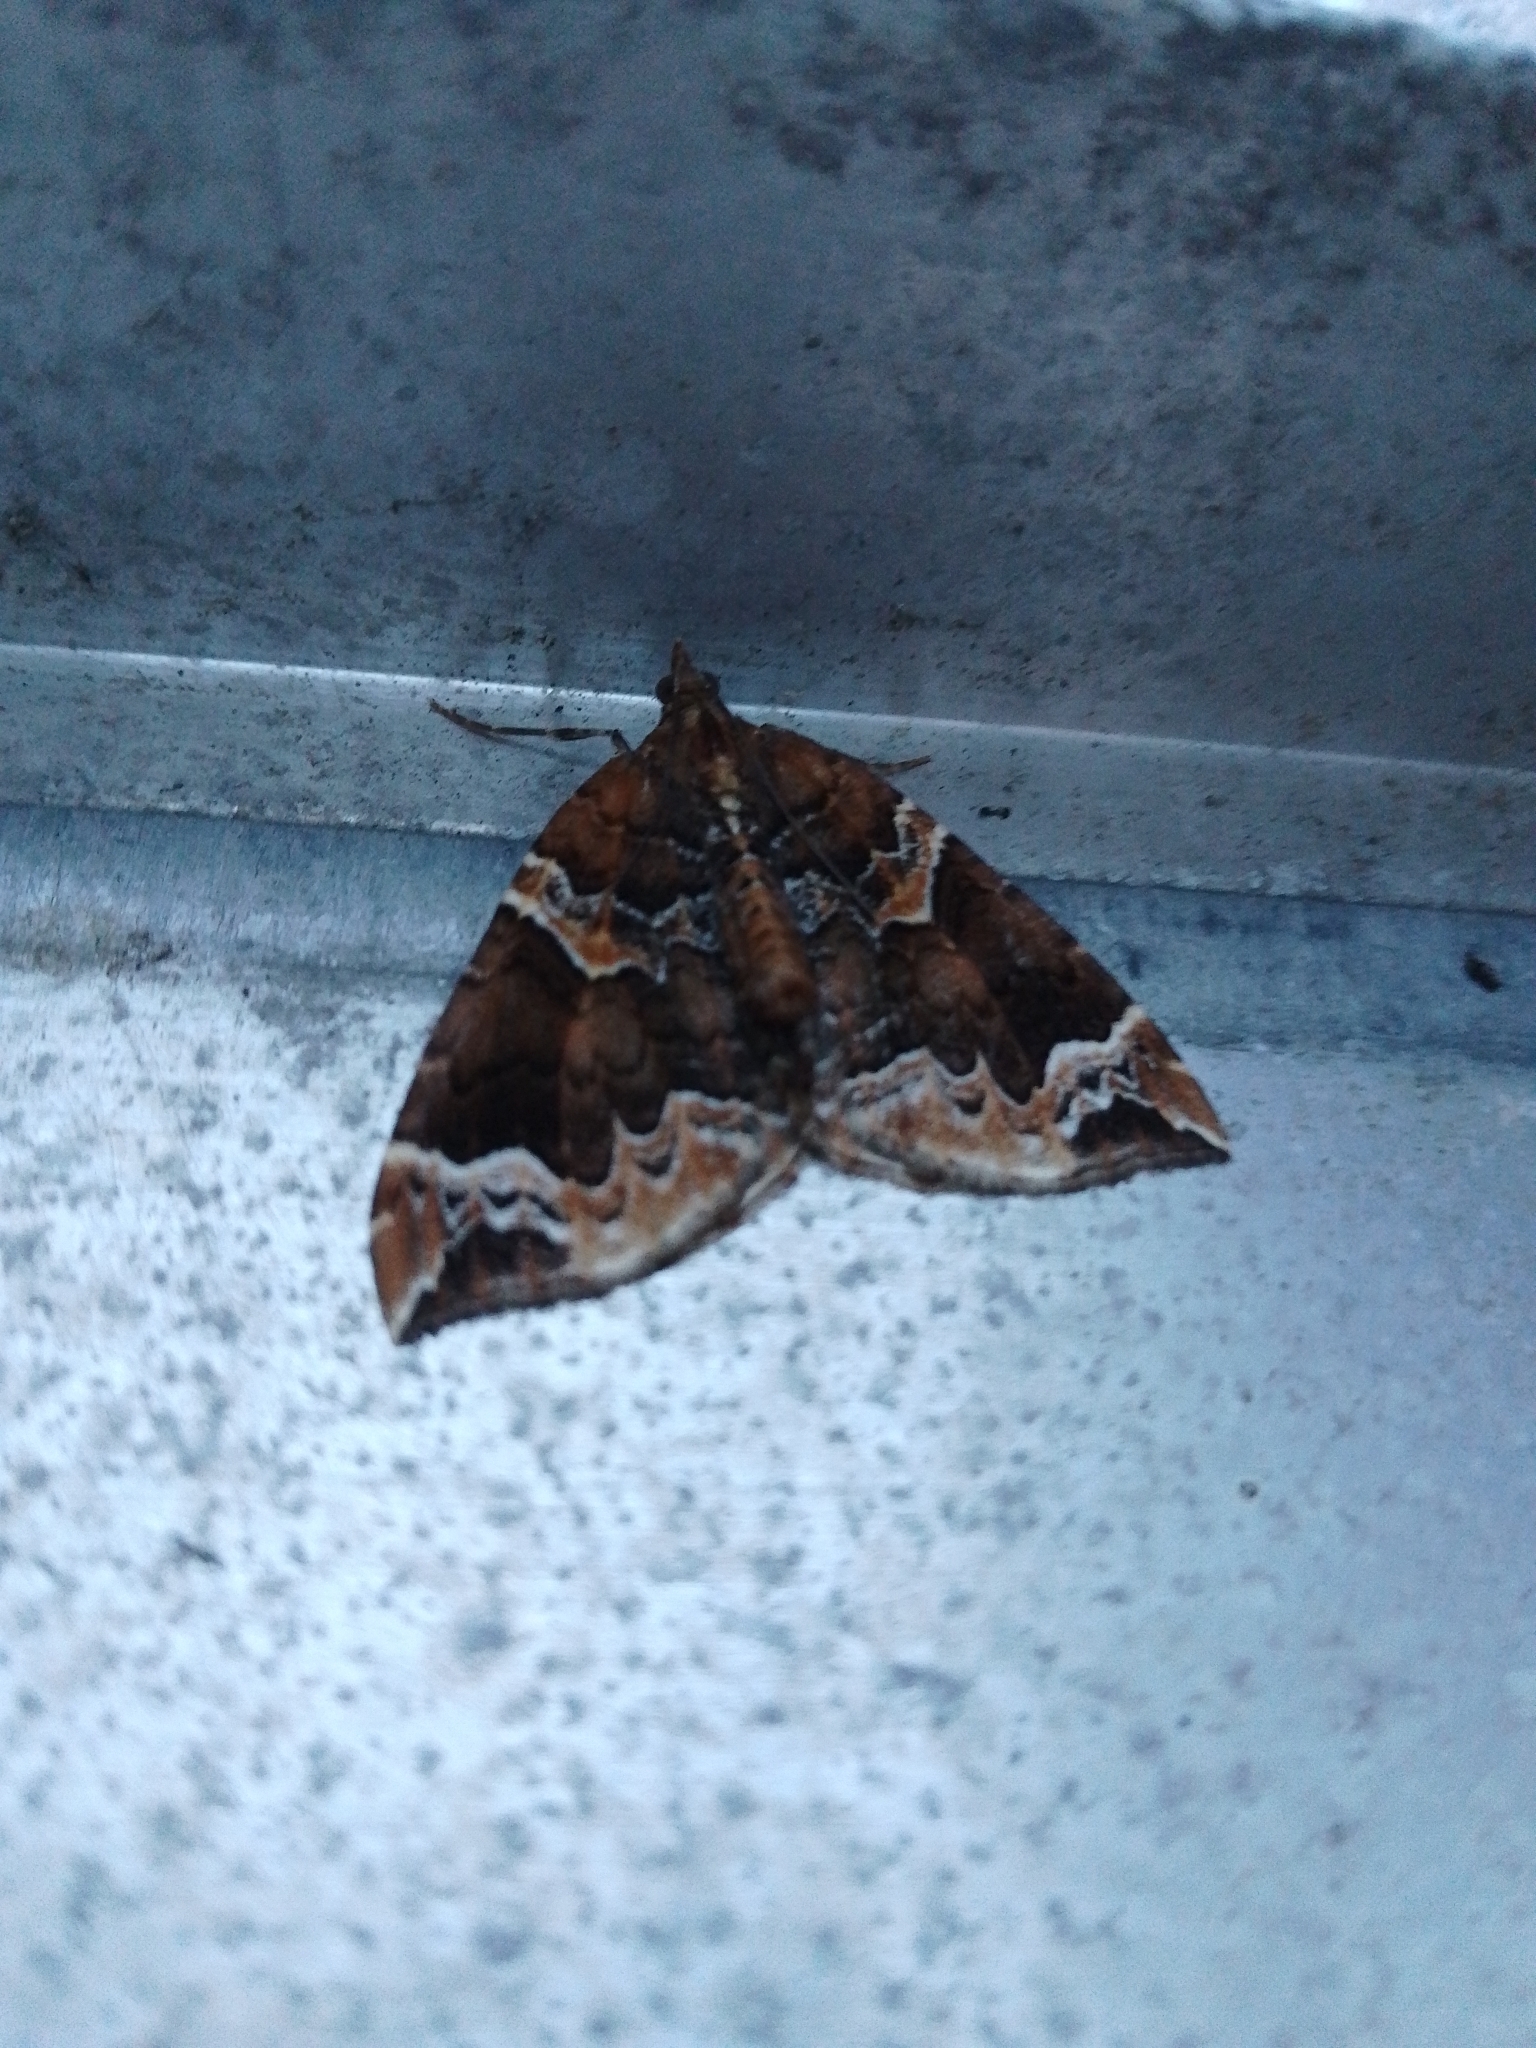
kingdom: Animalia
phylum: Arthropoda
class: Insecta
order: Lepidoptera
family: Geometridae
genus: Eulithis
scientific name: Eulithis prunata
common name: Phoenix
